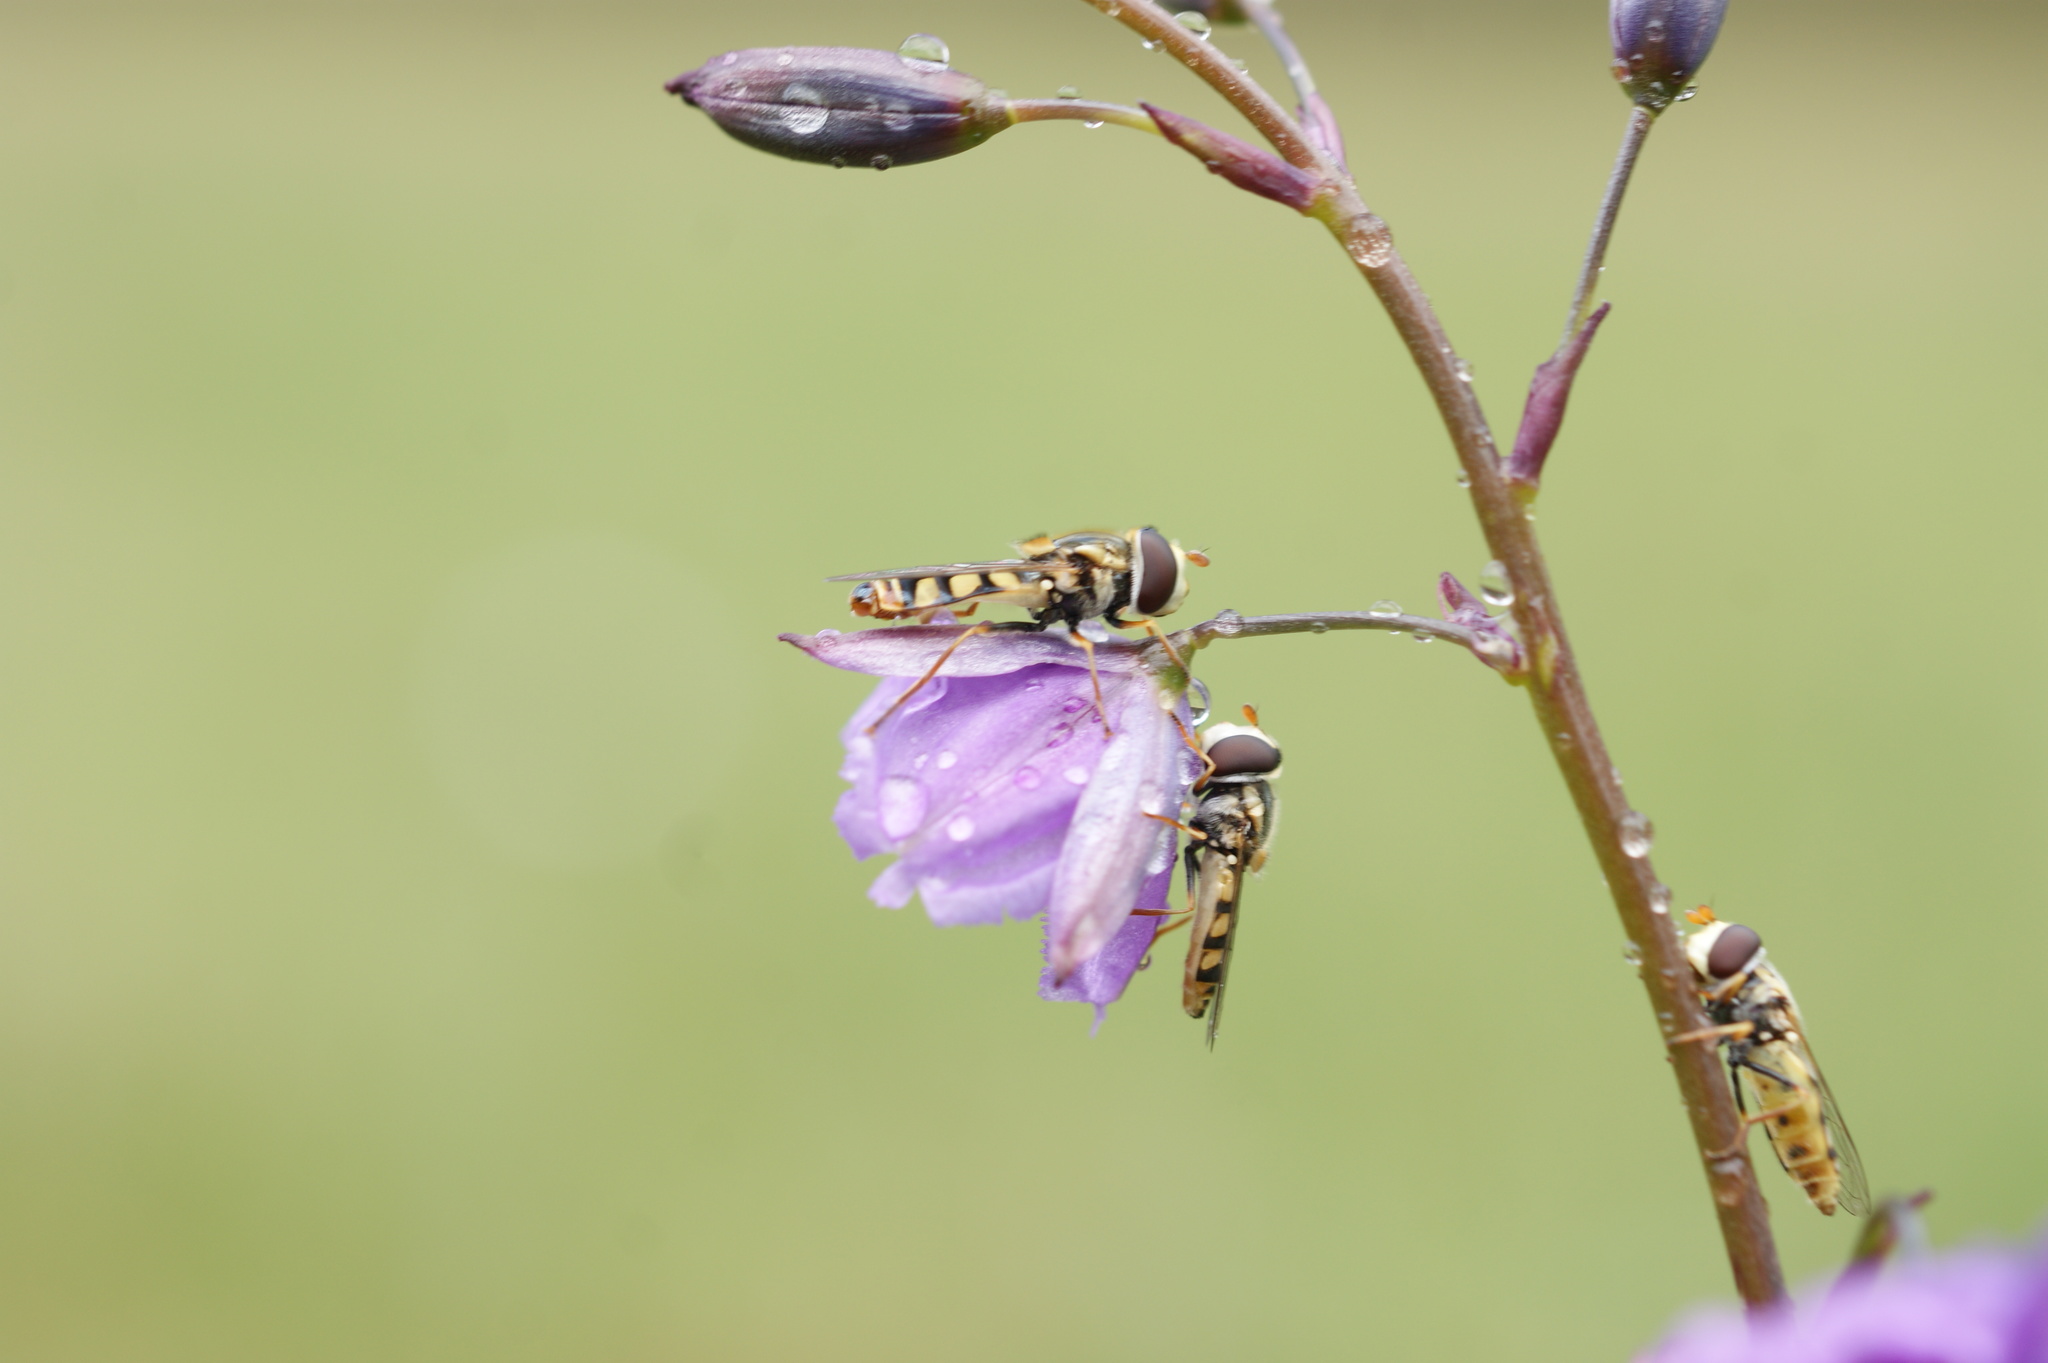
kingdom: Animalia
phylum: Arthropoda
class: Insecta
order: Diptera
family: Syrphidae
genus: Simosyrphus
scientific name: Simosyrphus grandicornis
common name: Hoverfly
